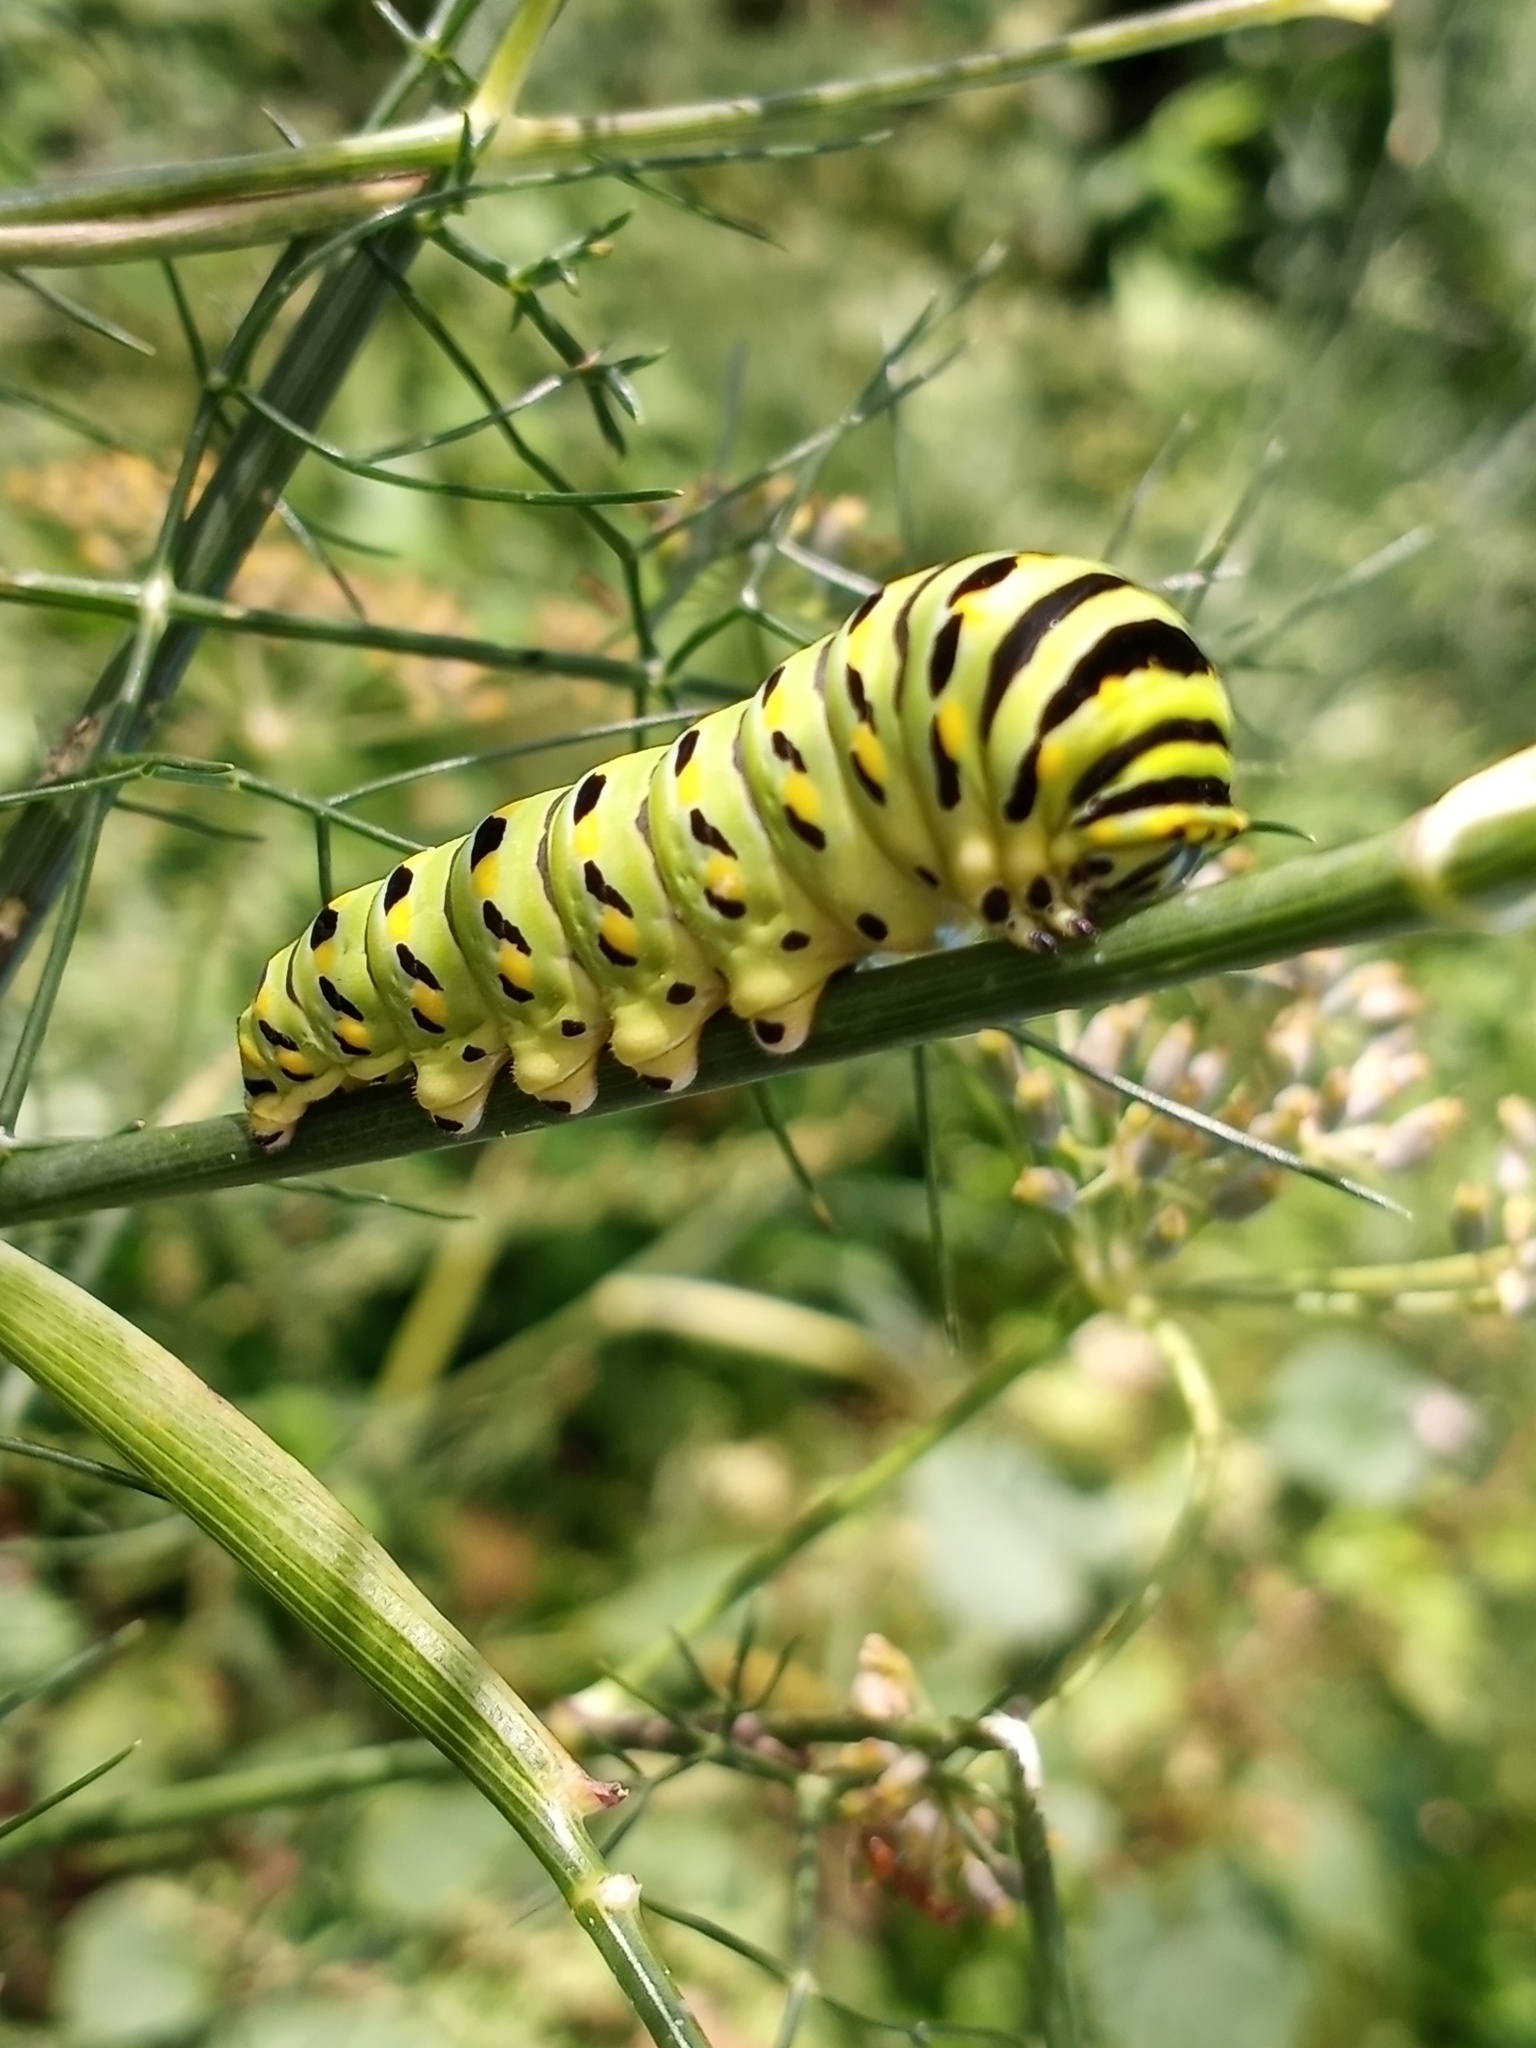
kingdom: Animalia
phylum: Arthropoda
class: Insecta
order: Lepidoptera
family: Papilionidae
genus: Papilio
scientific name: Papilio polyxenes
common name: Black swallowtail
